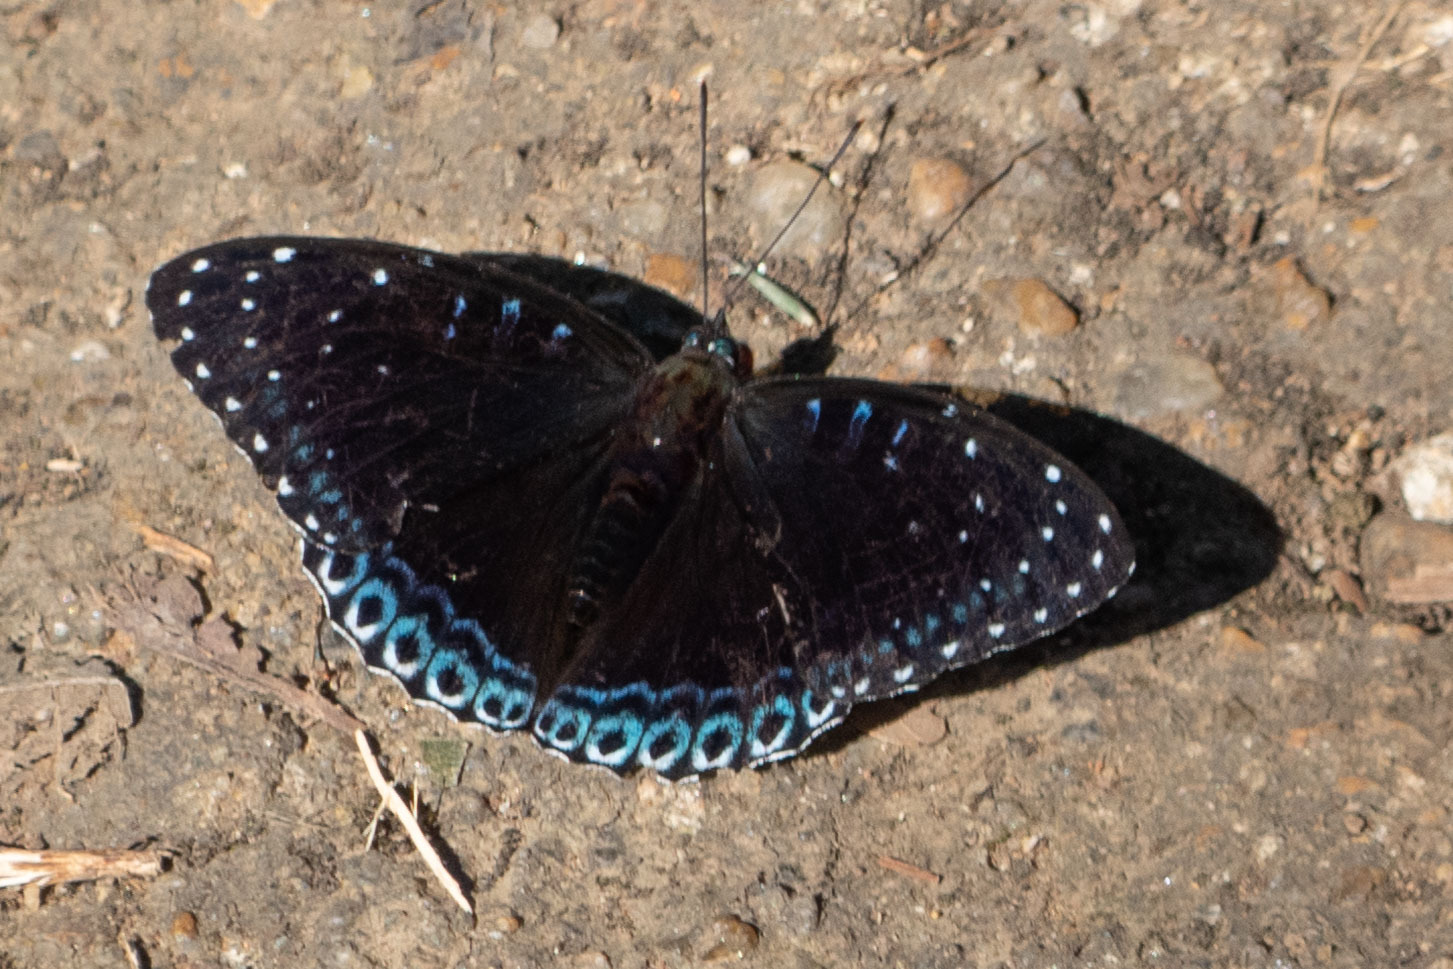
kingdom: Animalia
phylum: Arthropoda
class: Insecta
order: Lepidoptera
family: Nymphalidae
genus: Stibochiona
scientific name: Stibochiona nicea
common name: Popinjay
